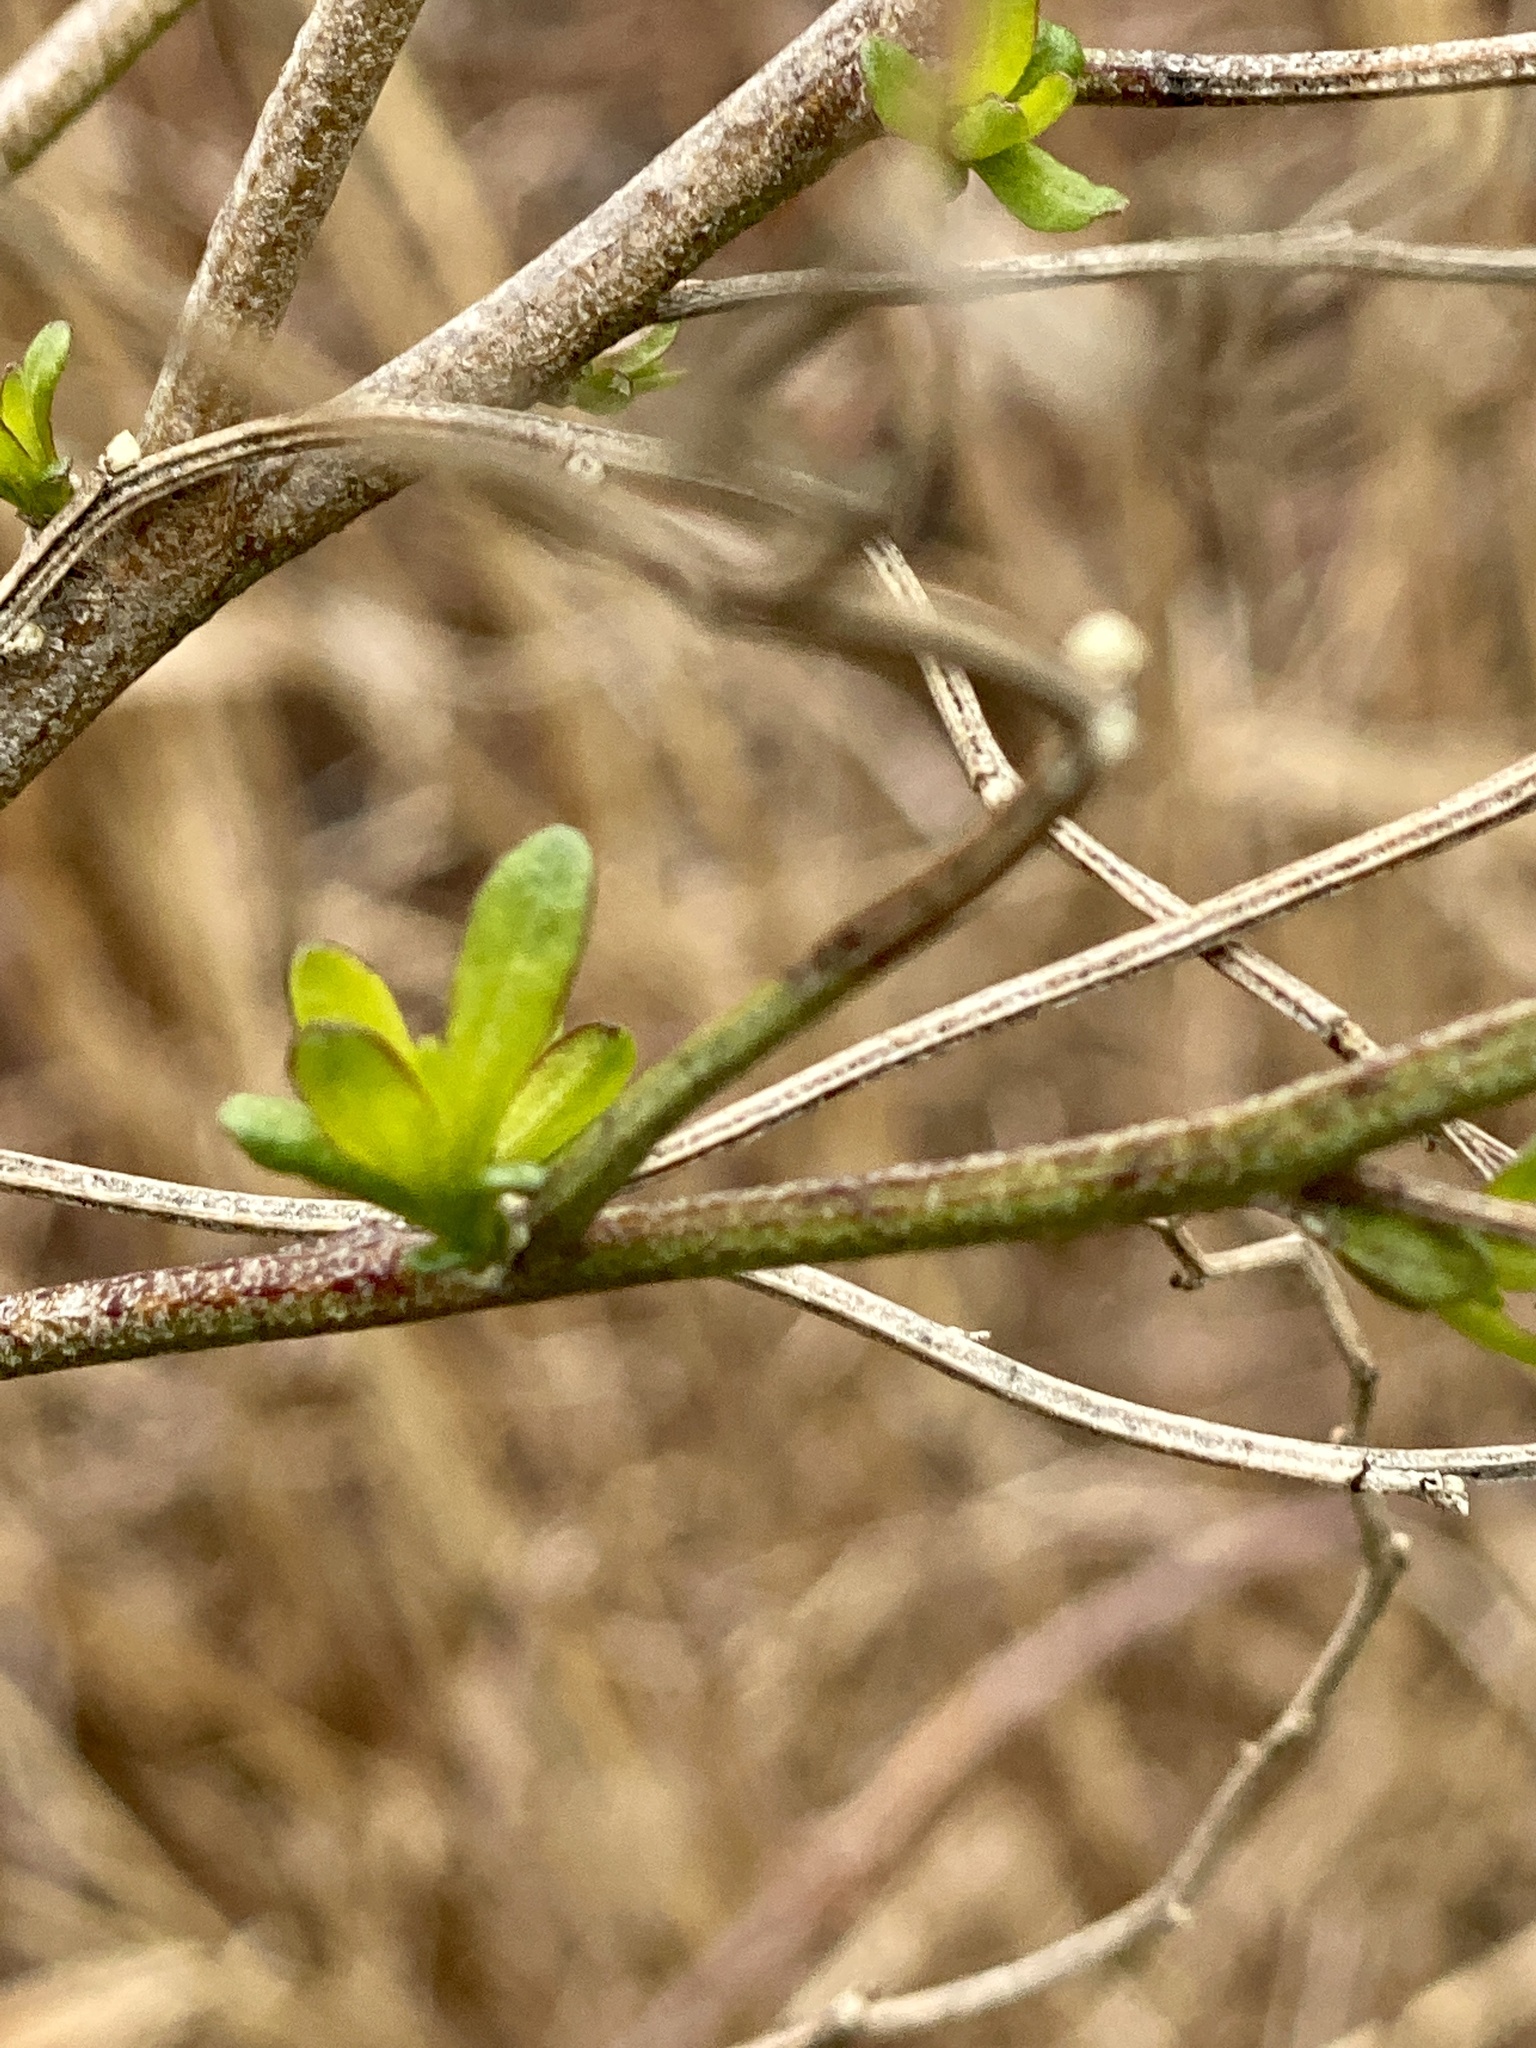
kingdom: Plantae
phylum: Tracheophyta
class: Magnoliopsida
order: Asterales
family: Asteraceae
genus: Baccharis
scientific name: Baccharis halimifolia
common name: Eastern baccharis
